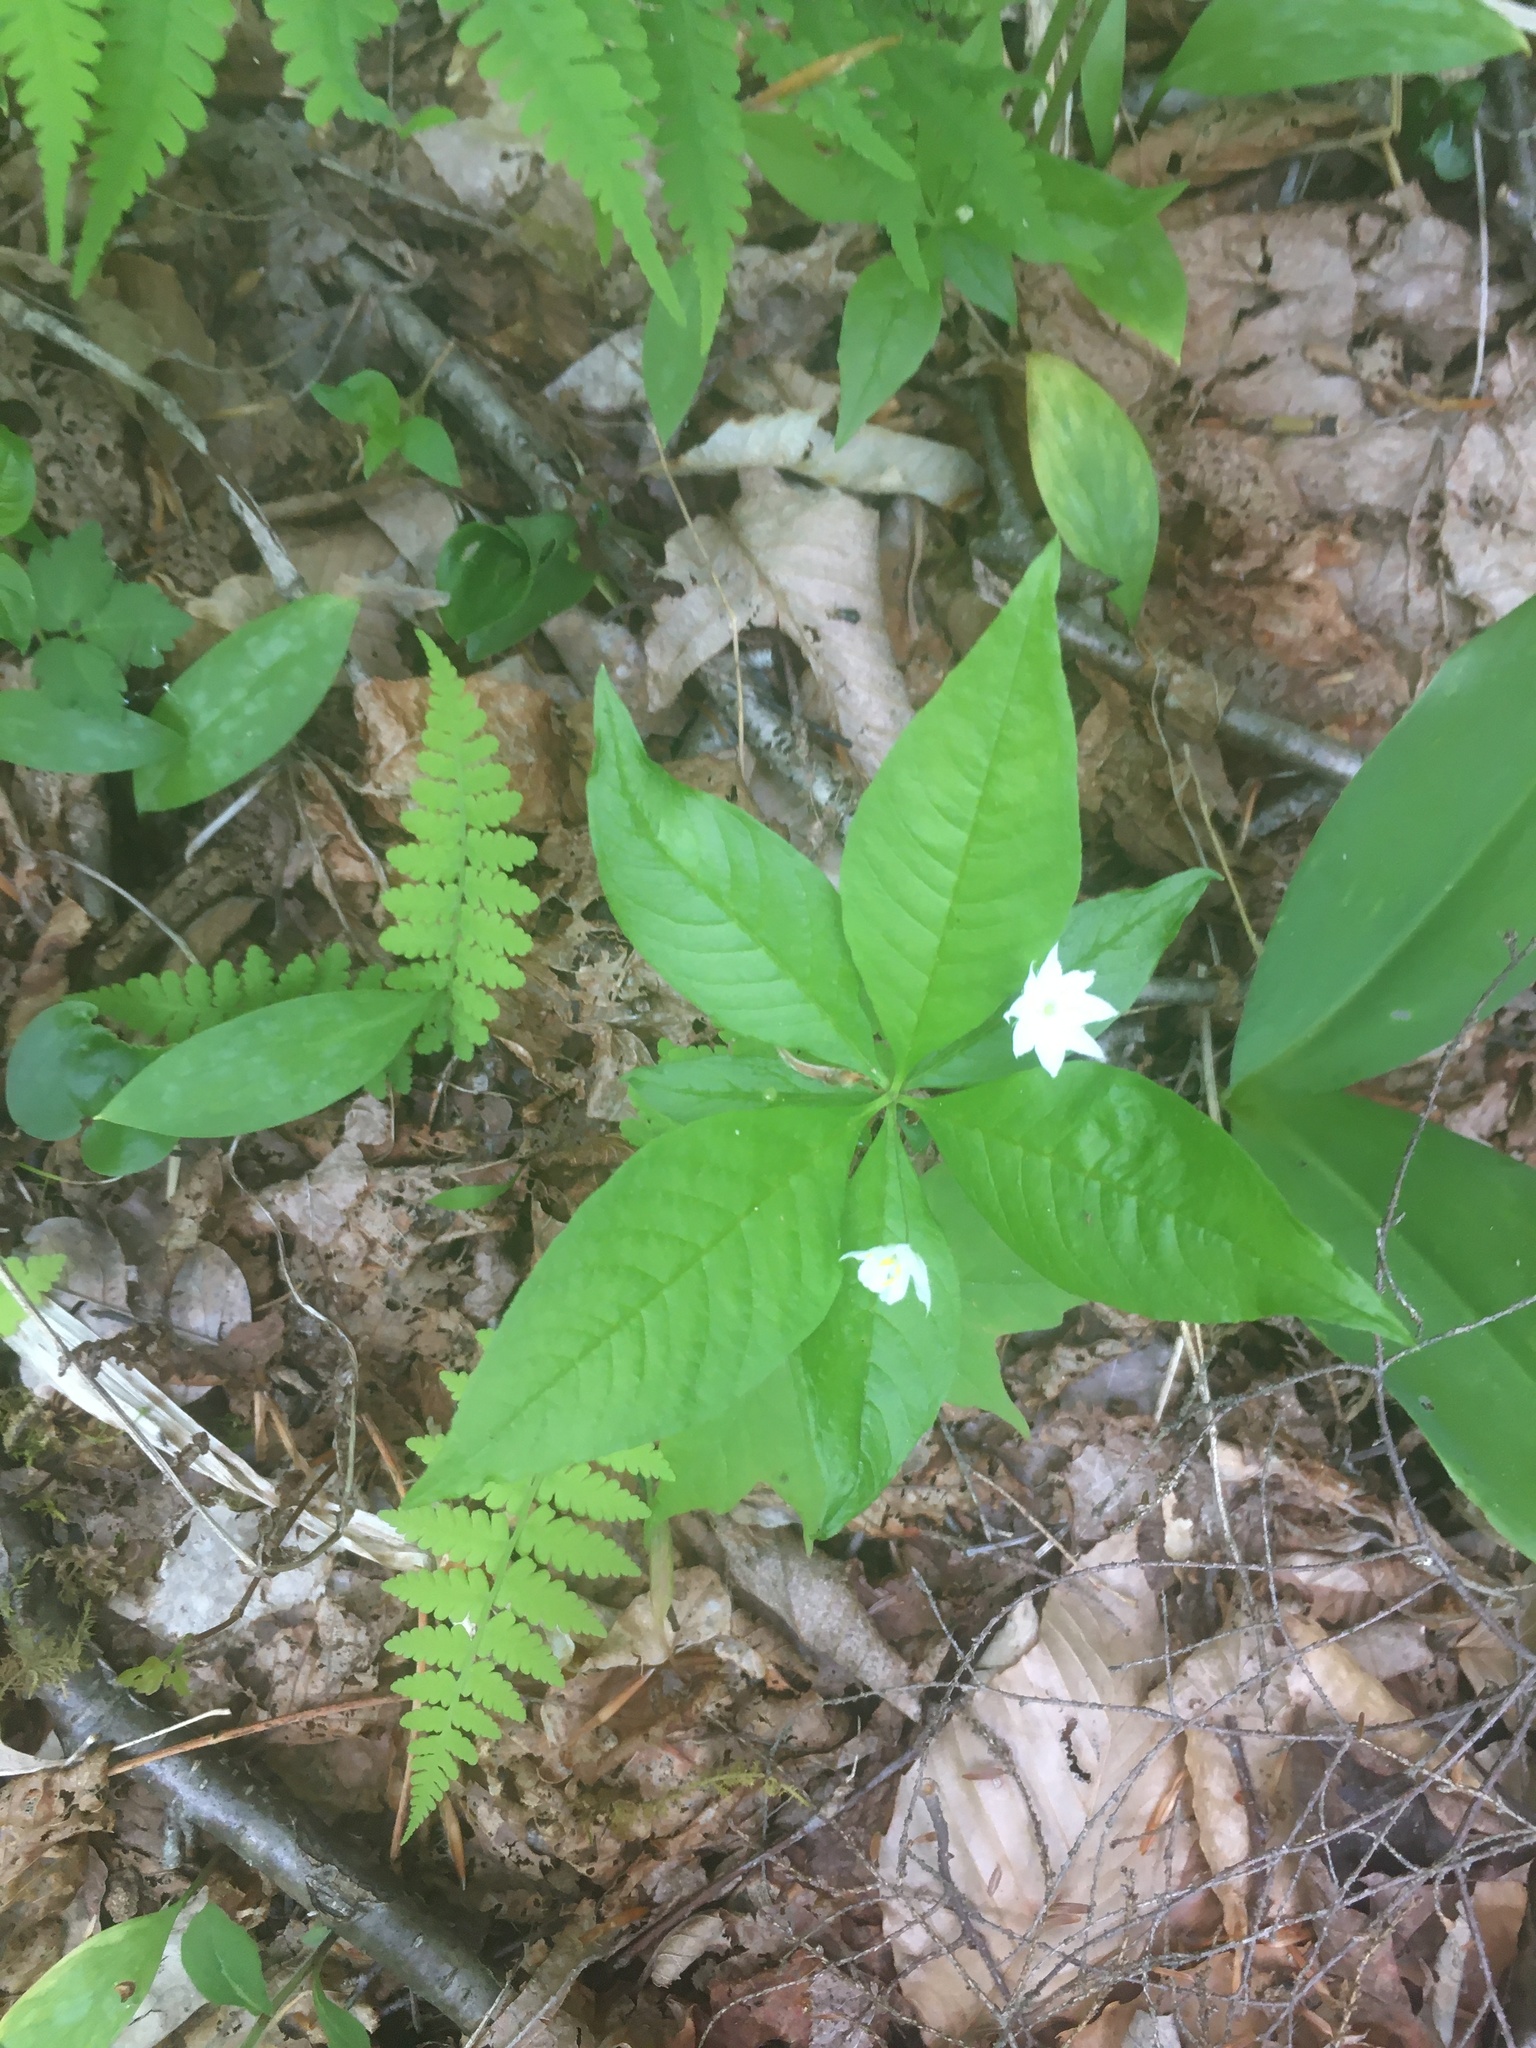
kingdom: Plantae
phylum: Tracheophyta
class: Magnoliopsida
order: Ericales
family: Primulaceae
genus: Lysimachia
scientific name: Lysimachia borealis
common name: American starflower
